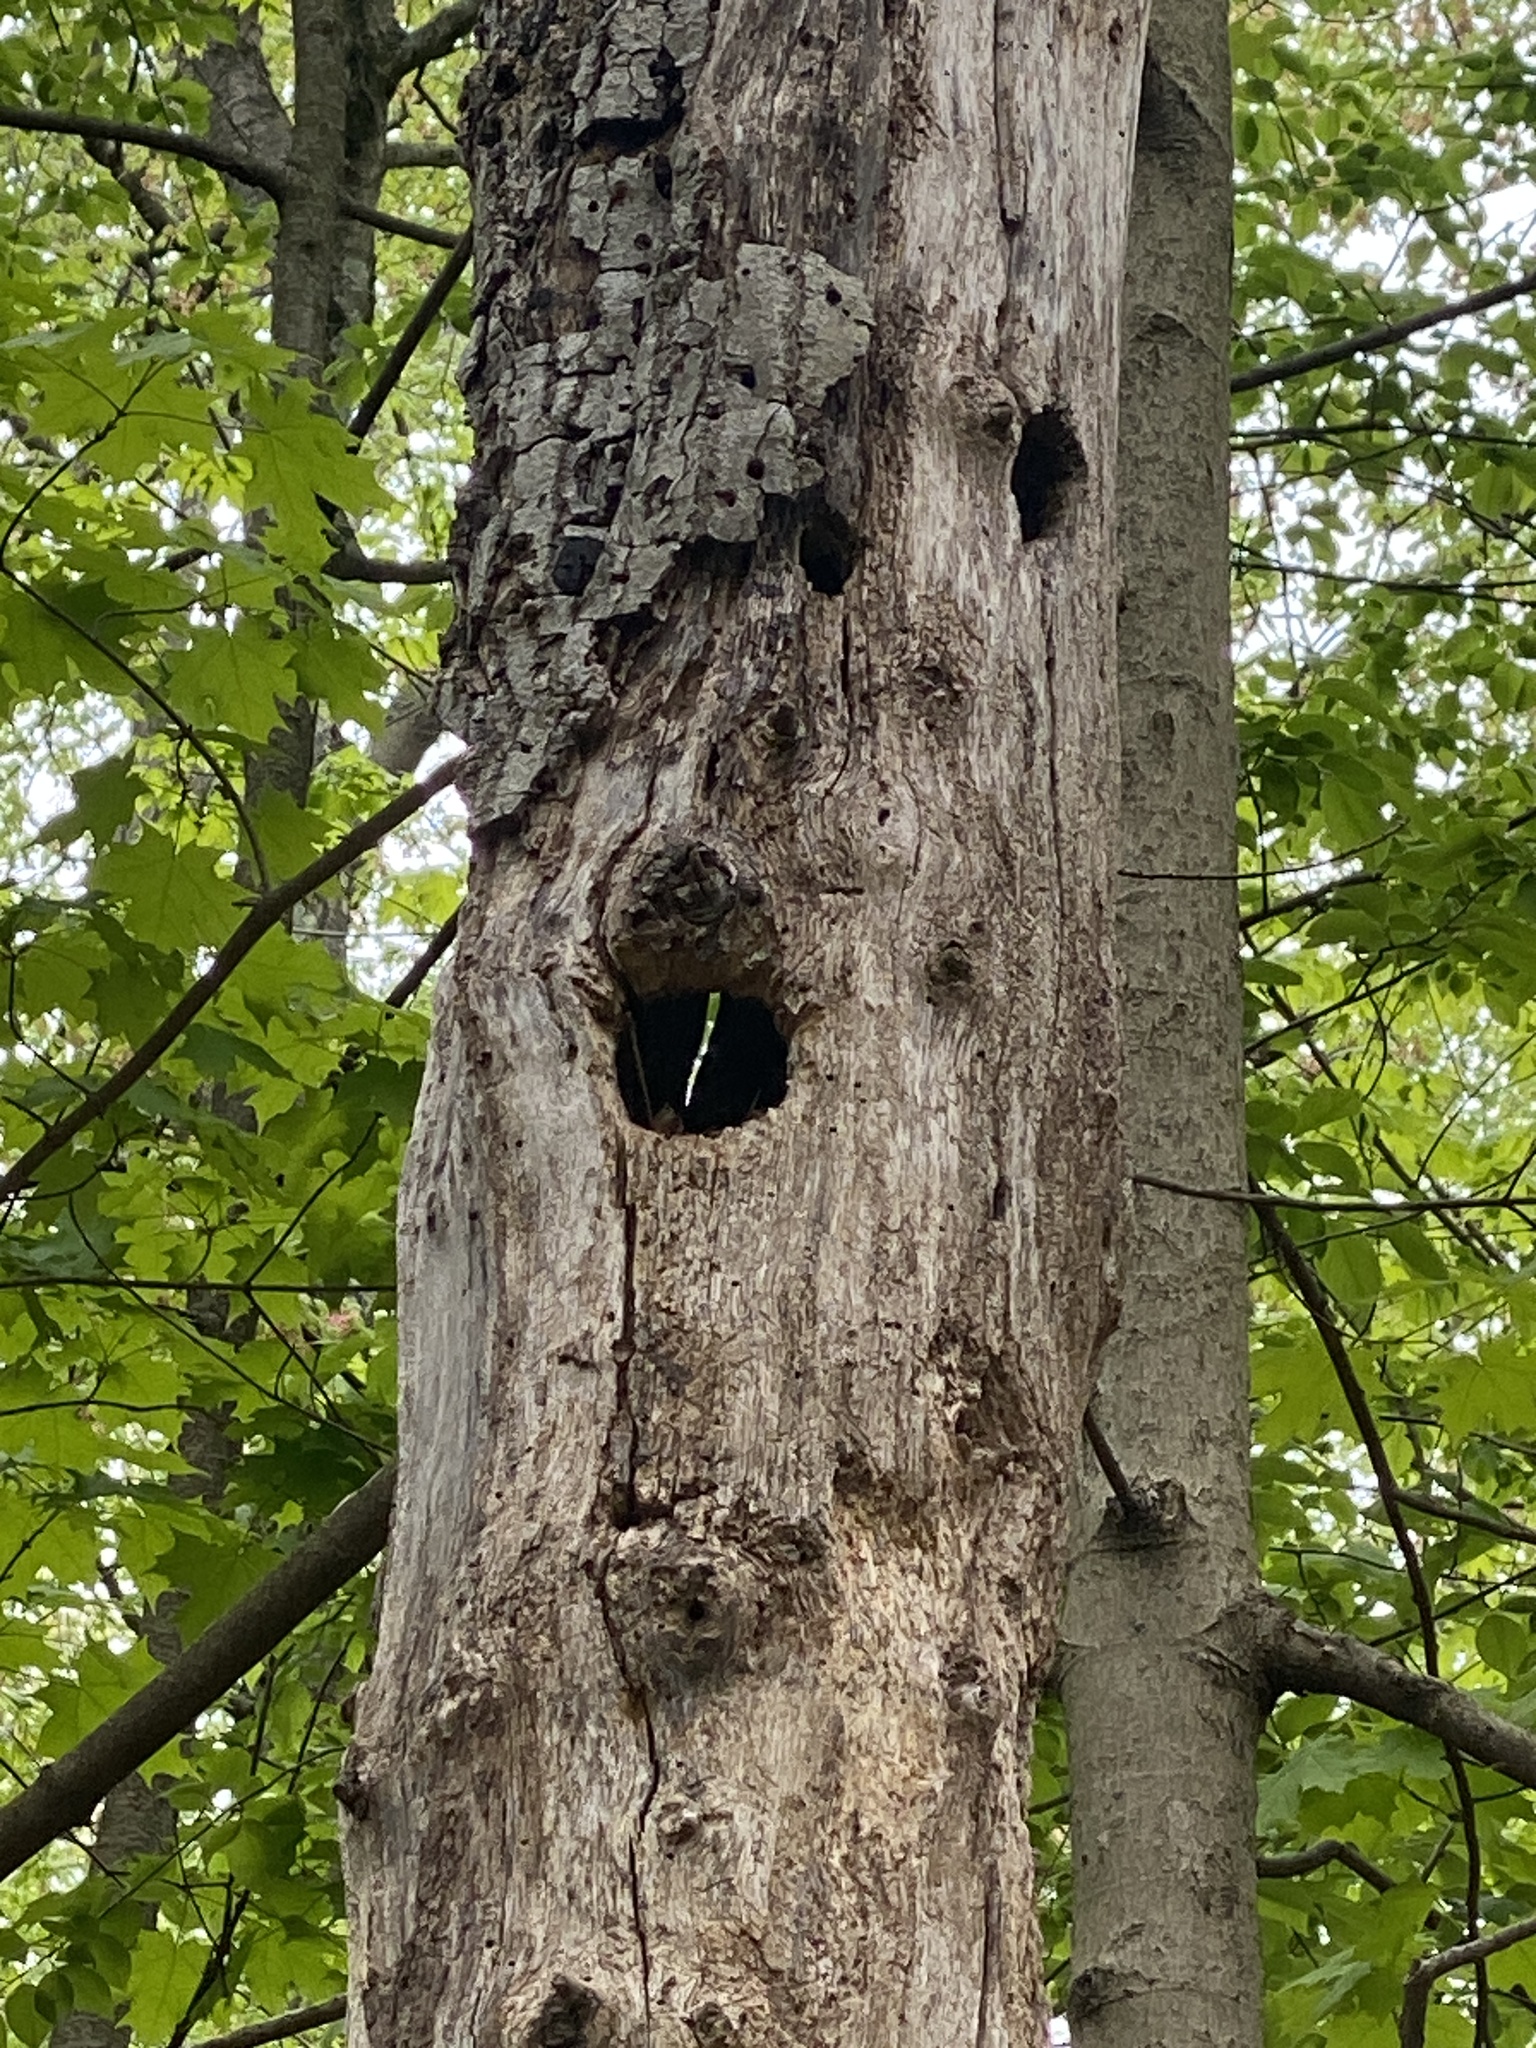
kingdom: Animalia
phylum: Chordata
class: Aves
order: Piciformes
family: Picidae
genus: Dryocopus
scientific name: Dryocopus pileatus
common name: Pileated woodpecker
